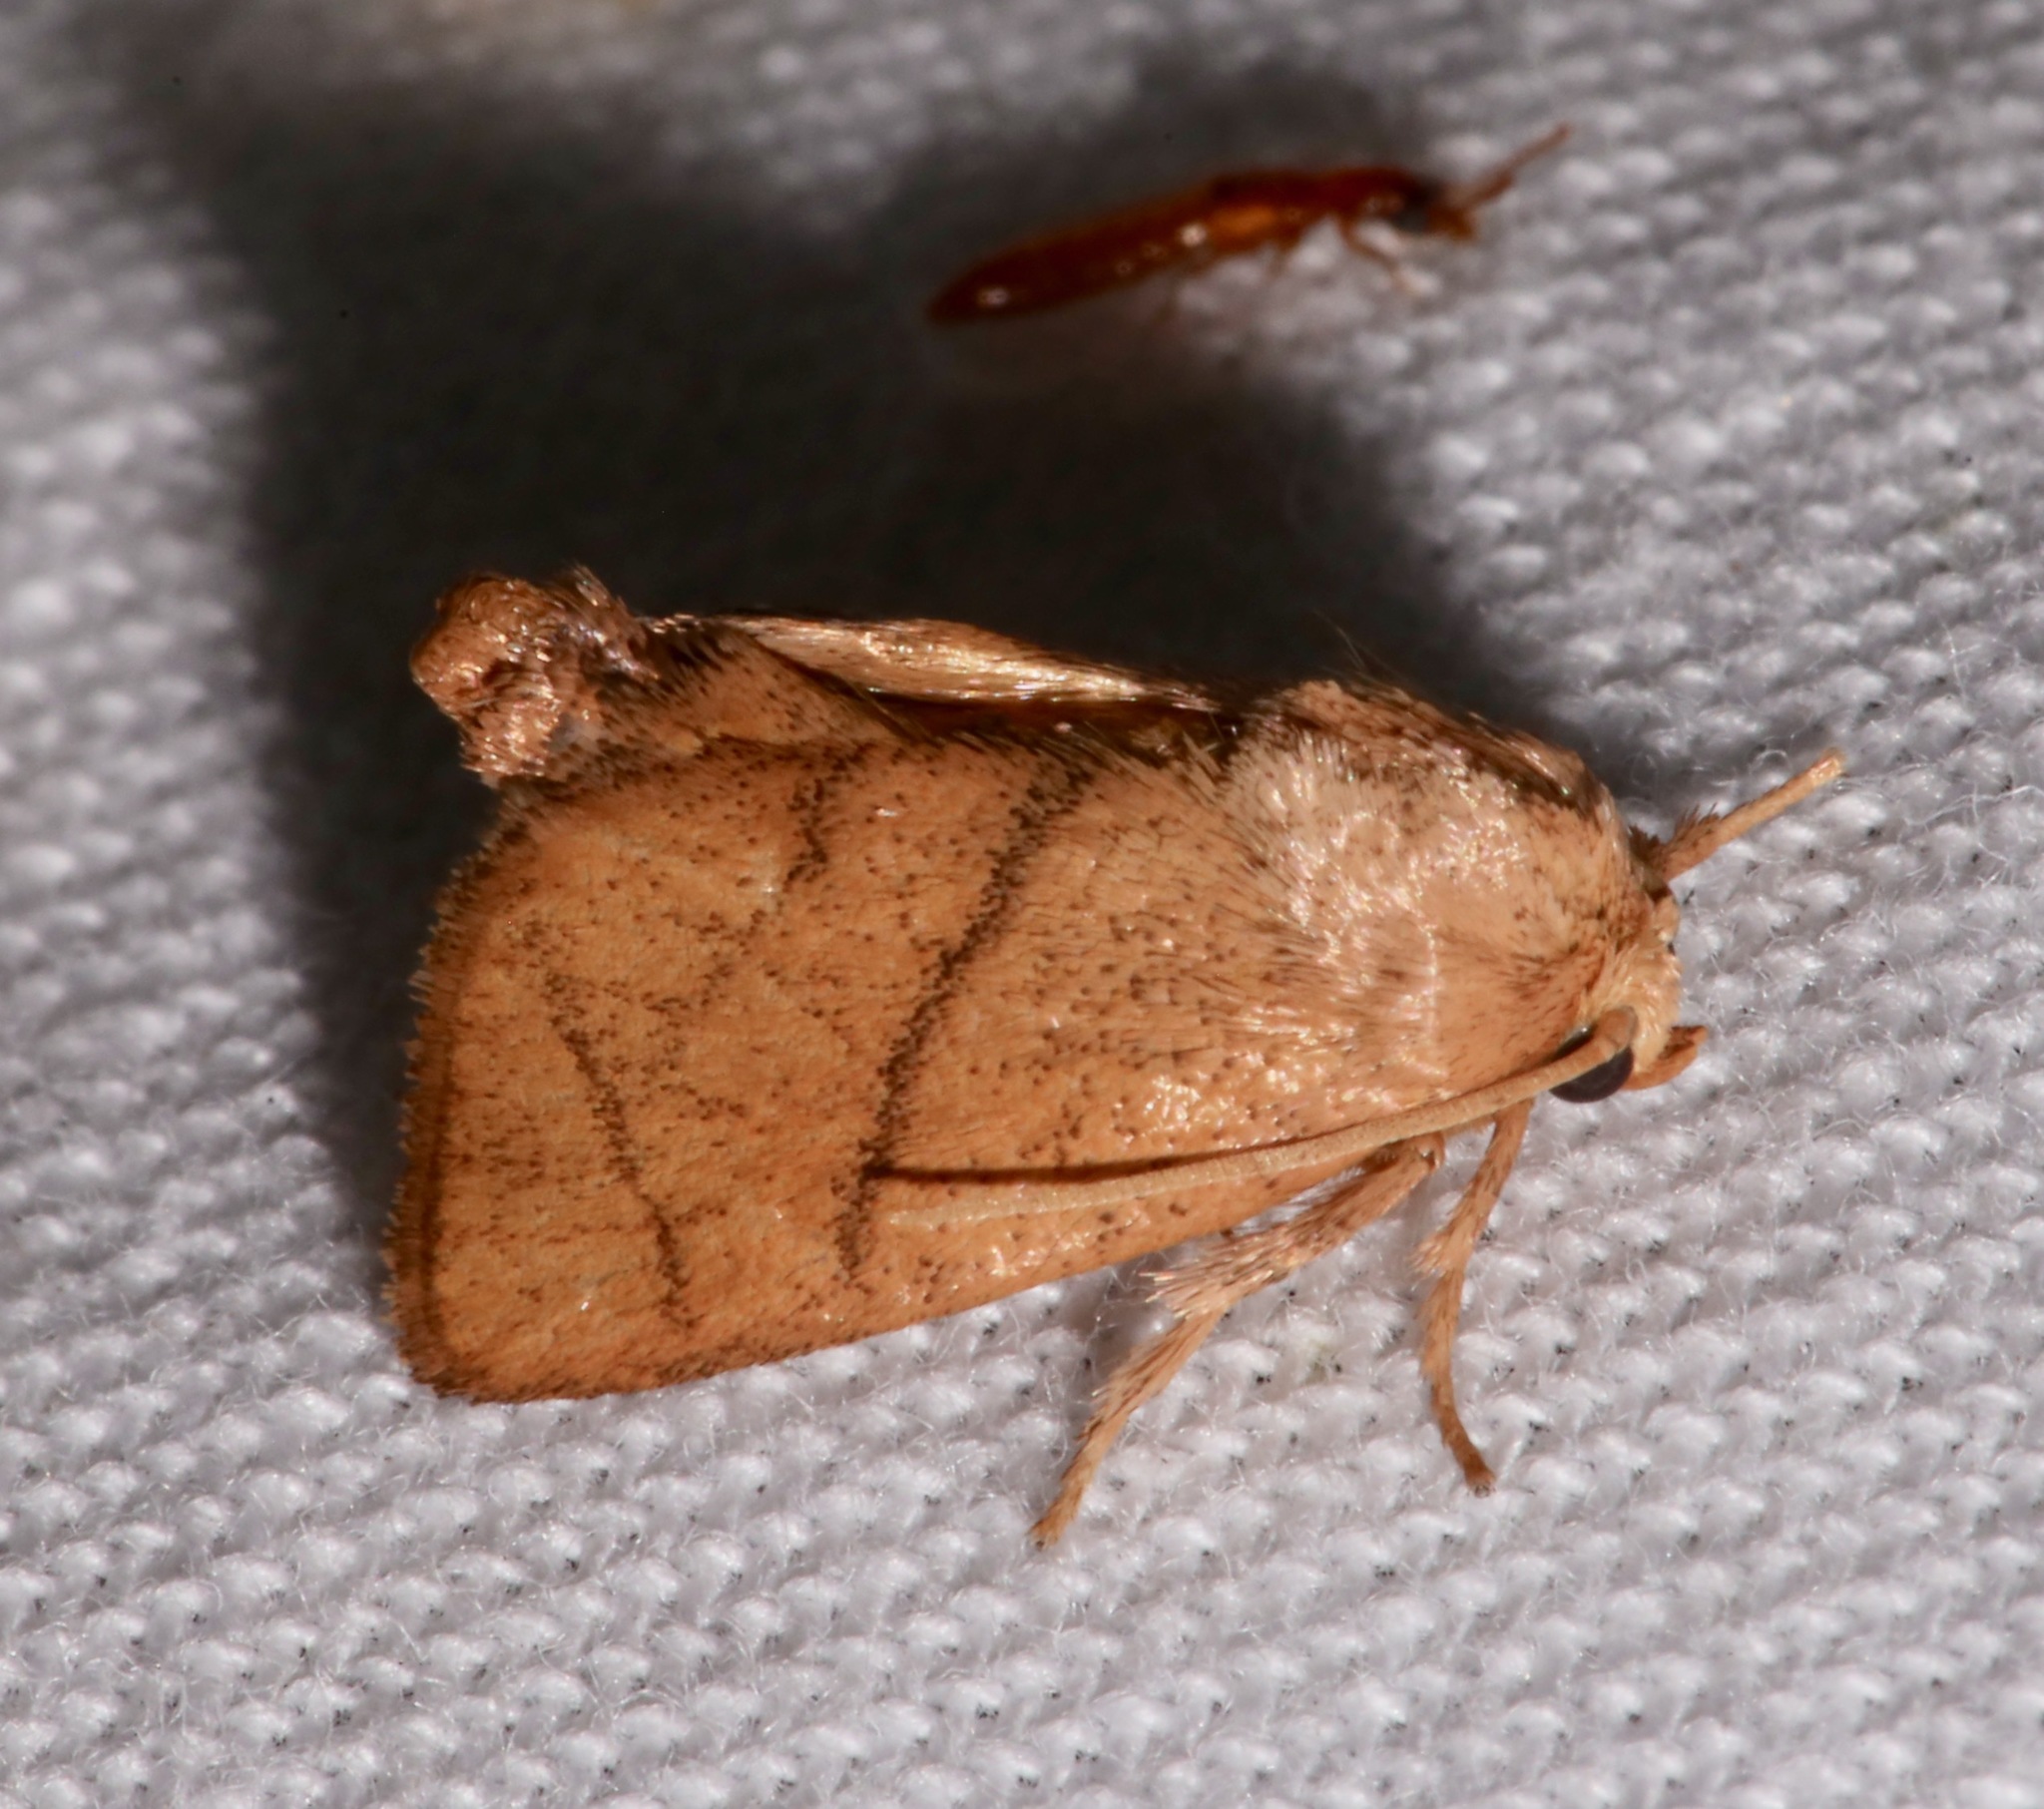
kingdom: Animalia
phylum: Arthropoda
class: Insecta
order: Lepidoptera
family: Limacodidae
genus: Apoda
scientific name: Apoda y-inversa
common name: Yellow-collared slug moth
